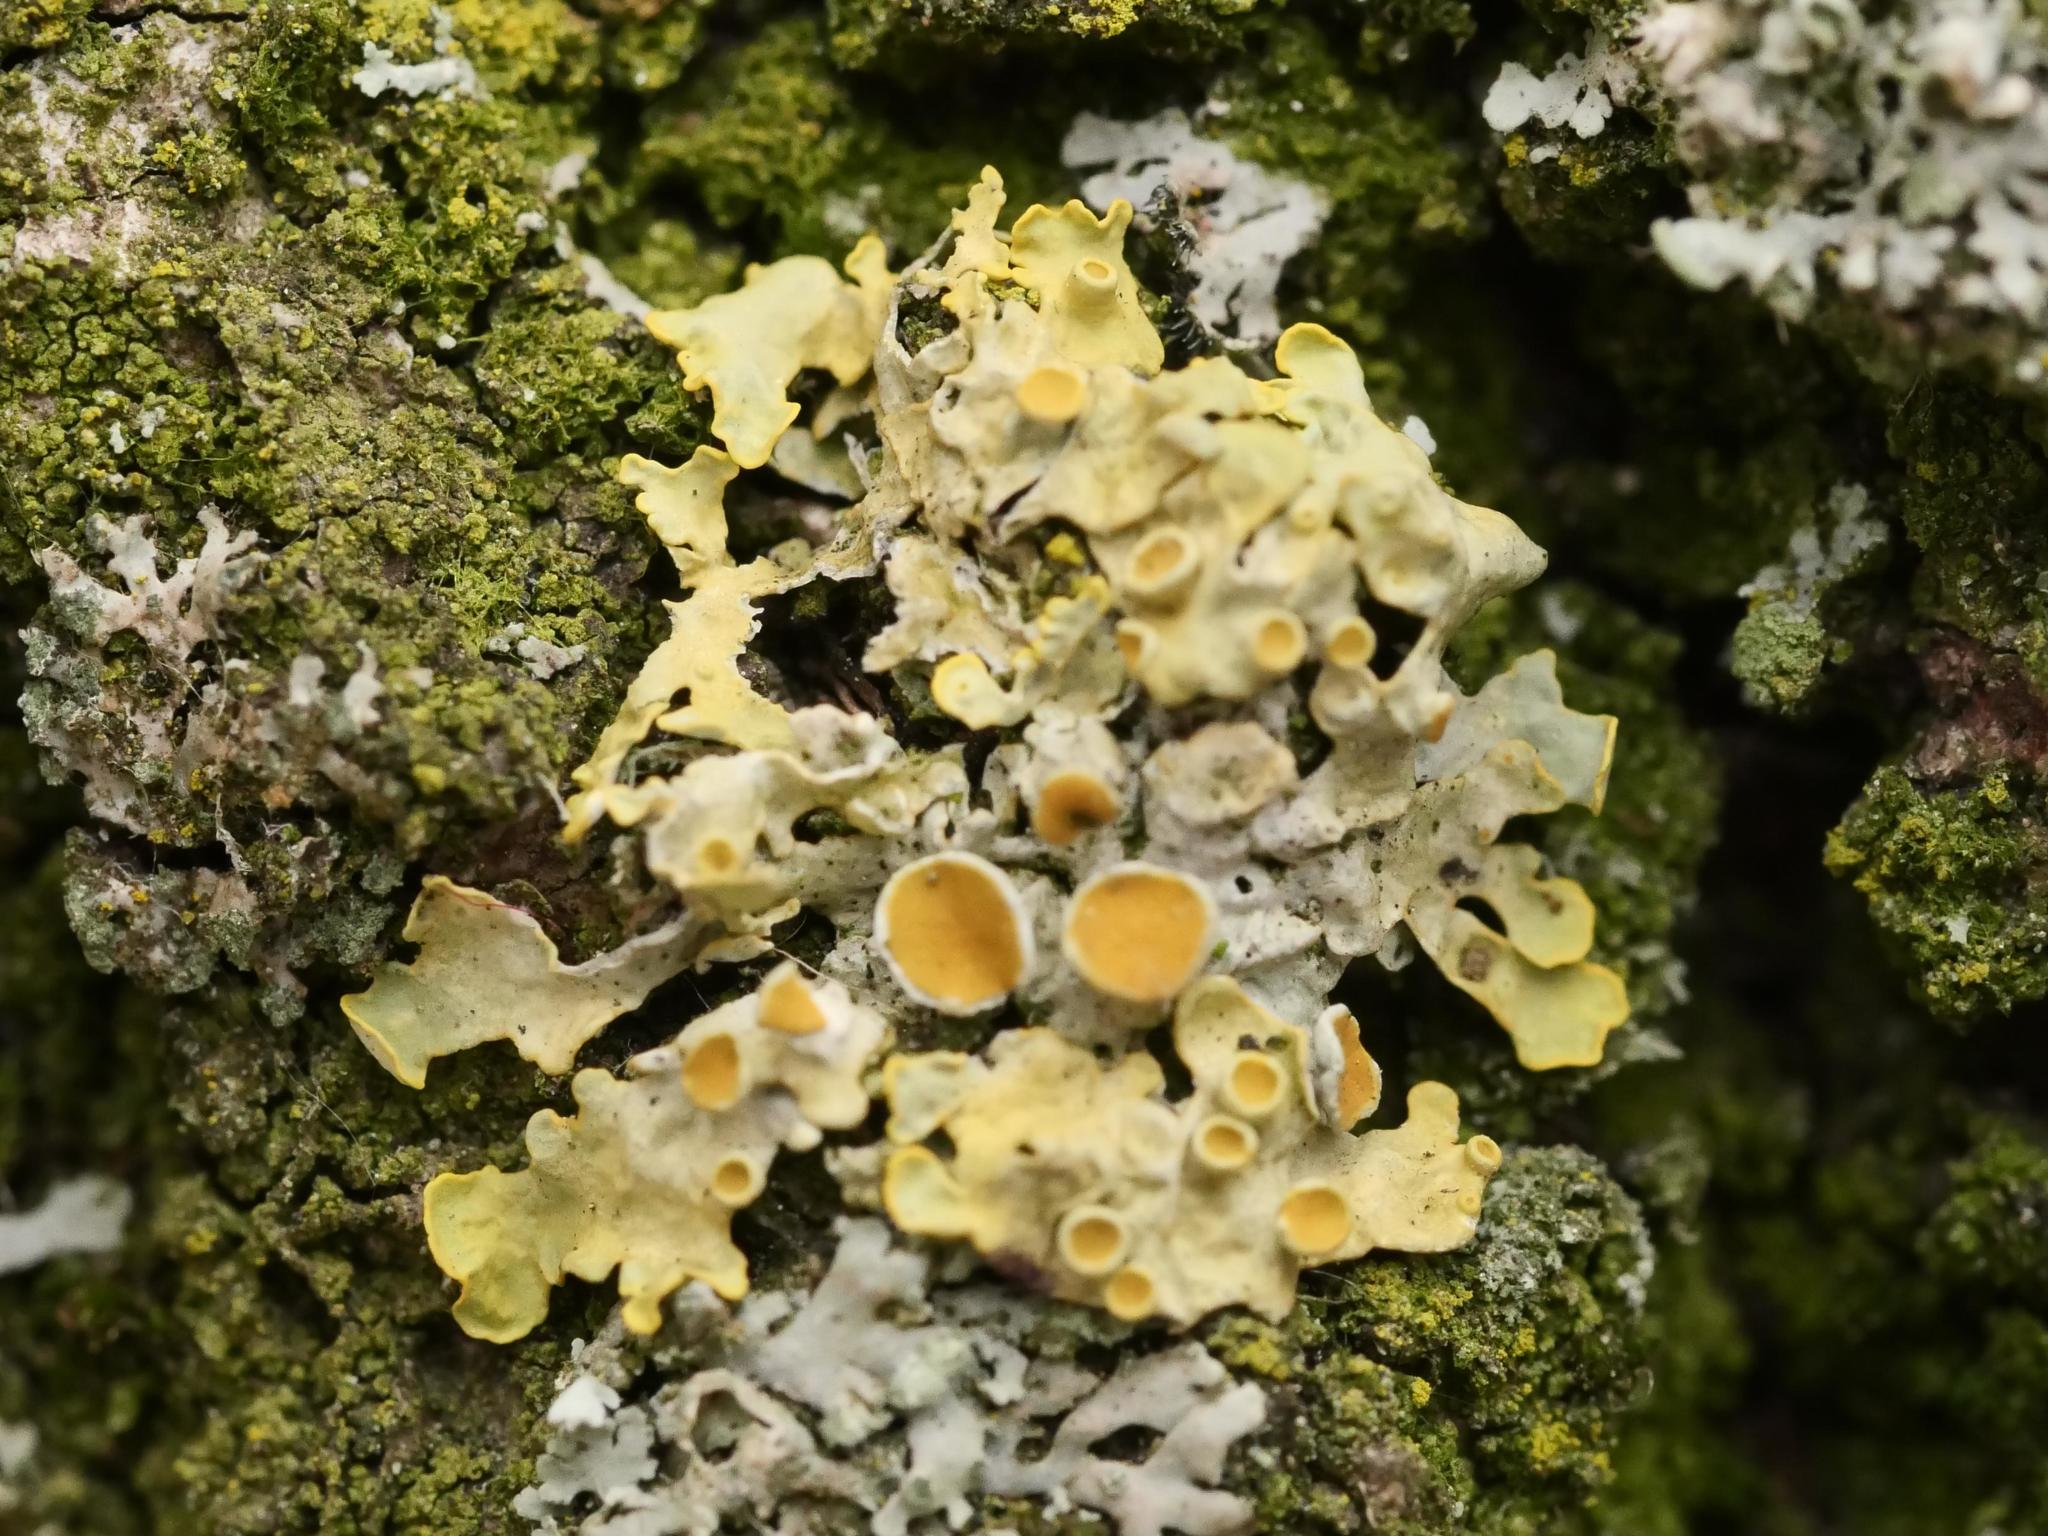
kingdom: Fungi
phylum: Ascomycota
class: Lecanoromycetes
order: Teloschistales
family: Teloschistaceae
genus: Xanthoria
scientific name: Xanthoria parietina
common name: Common orange lichen
